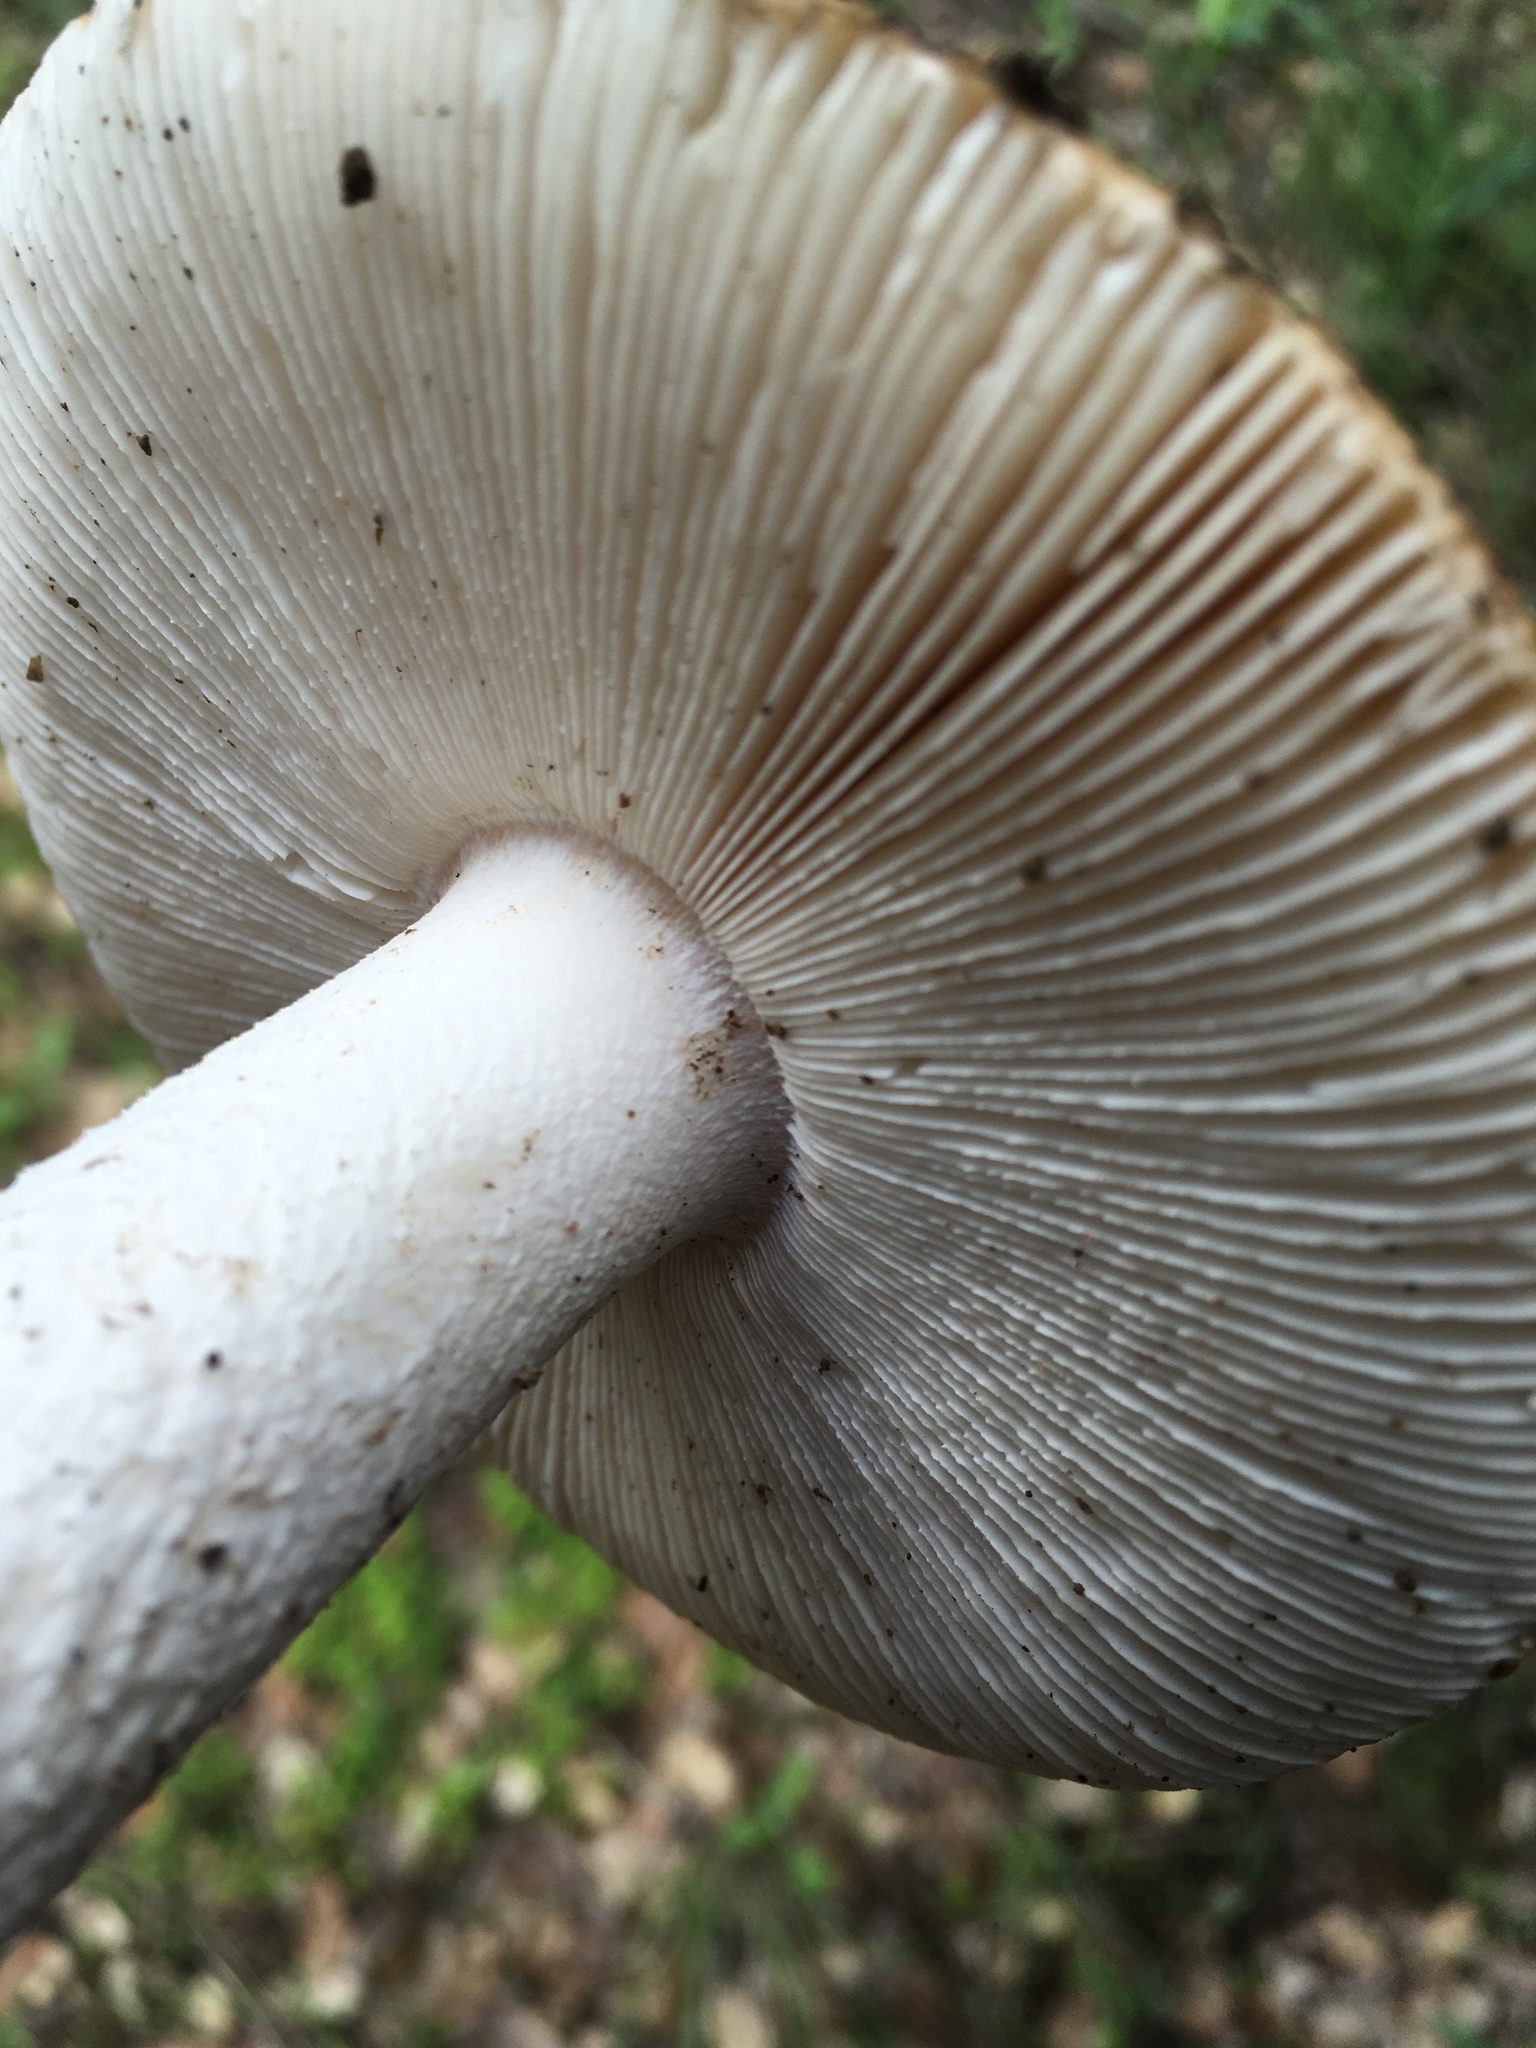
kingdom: Fungi
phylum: Basidiomycota
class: Agaricomycetes
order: Agaricales
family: Amanitaceae
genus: Amanita
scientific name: Amanita velosa
